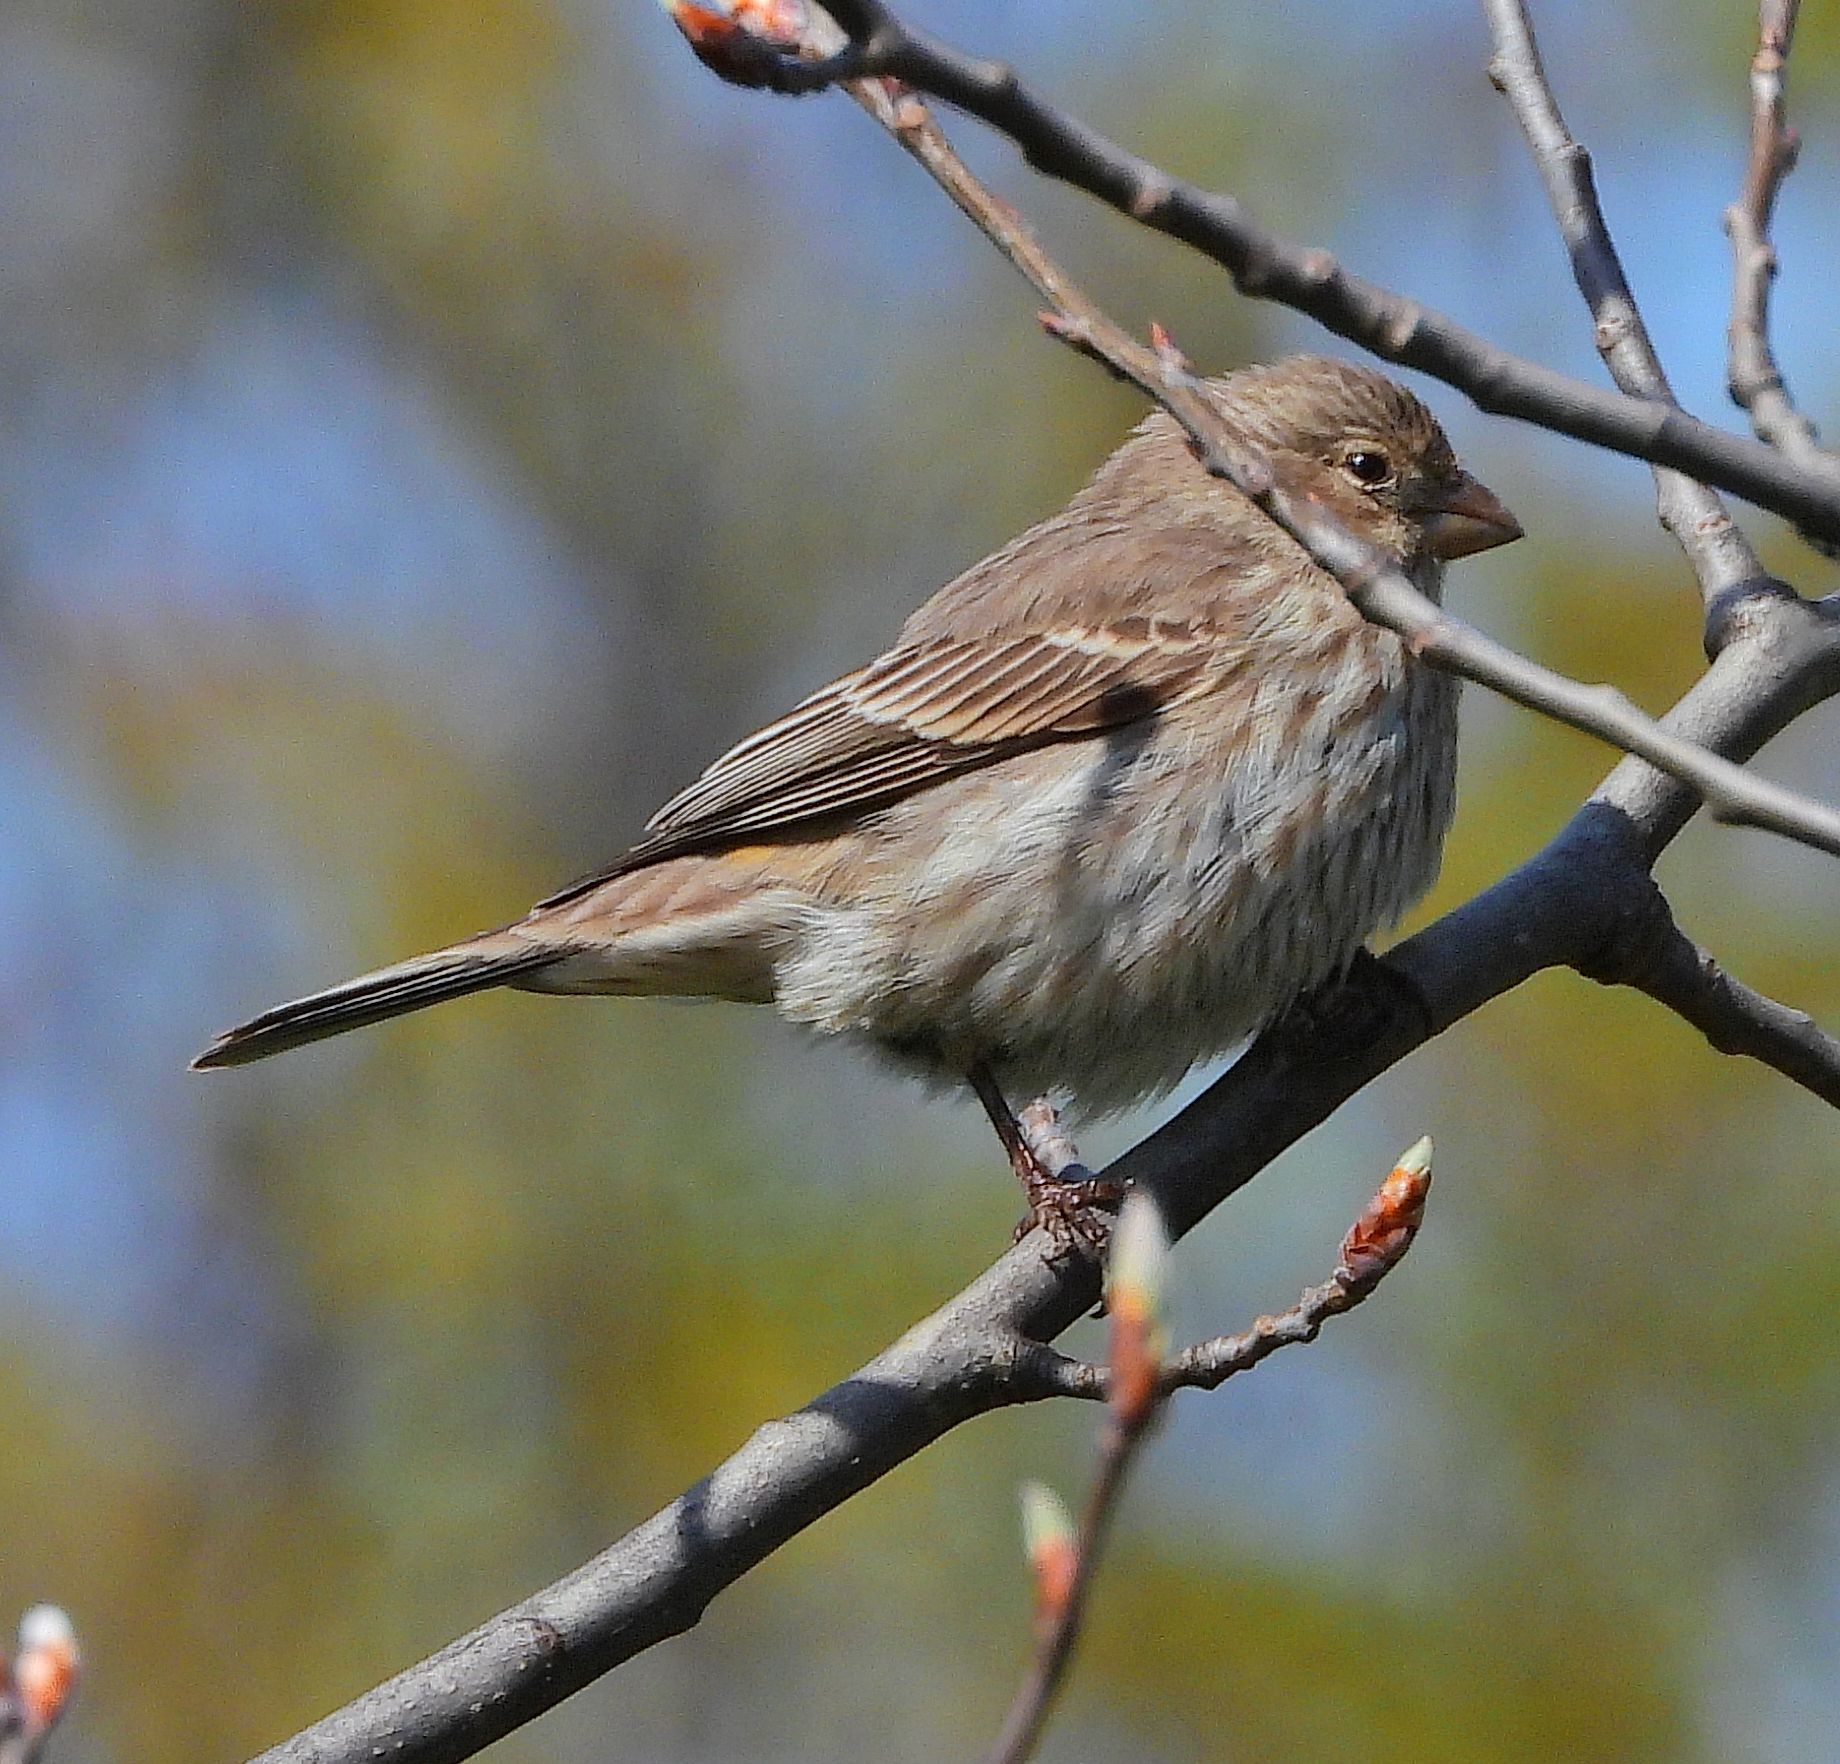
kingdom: Animalia
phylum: Chordata
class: Aves
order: Passeriformes
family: Fringillidae
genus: Haemorhous
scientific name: Haemorhous mexicanus
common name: House finch
